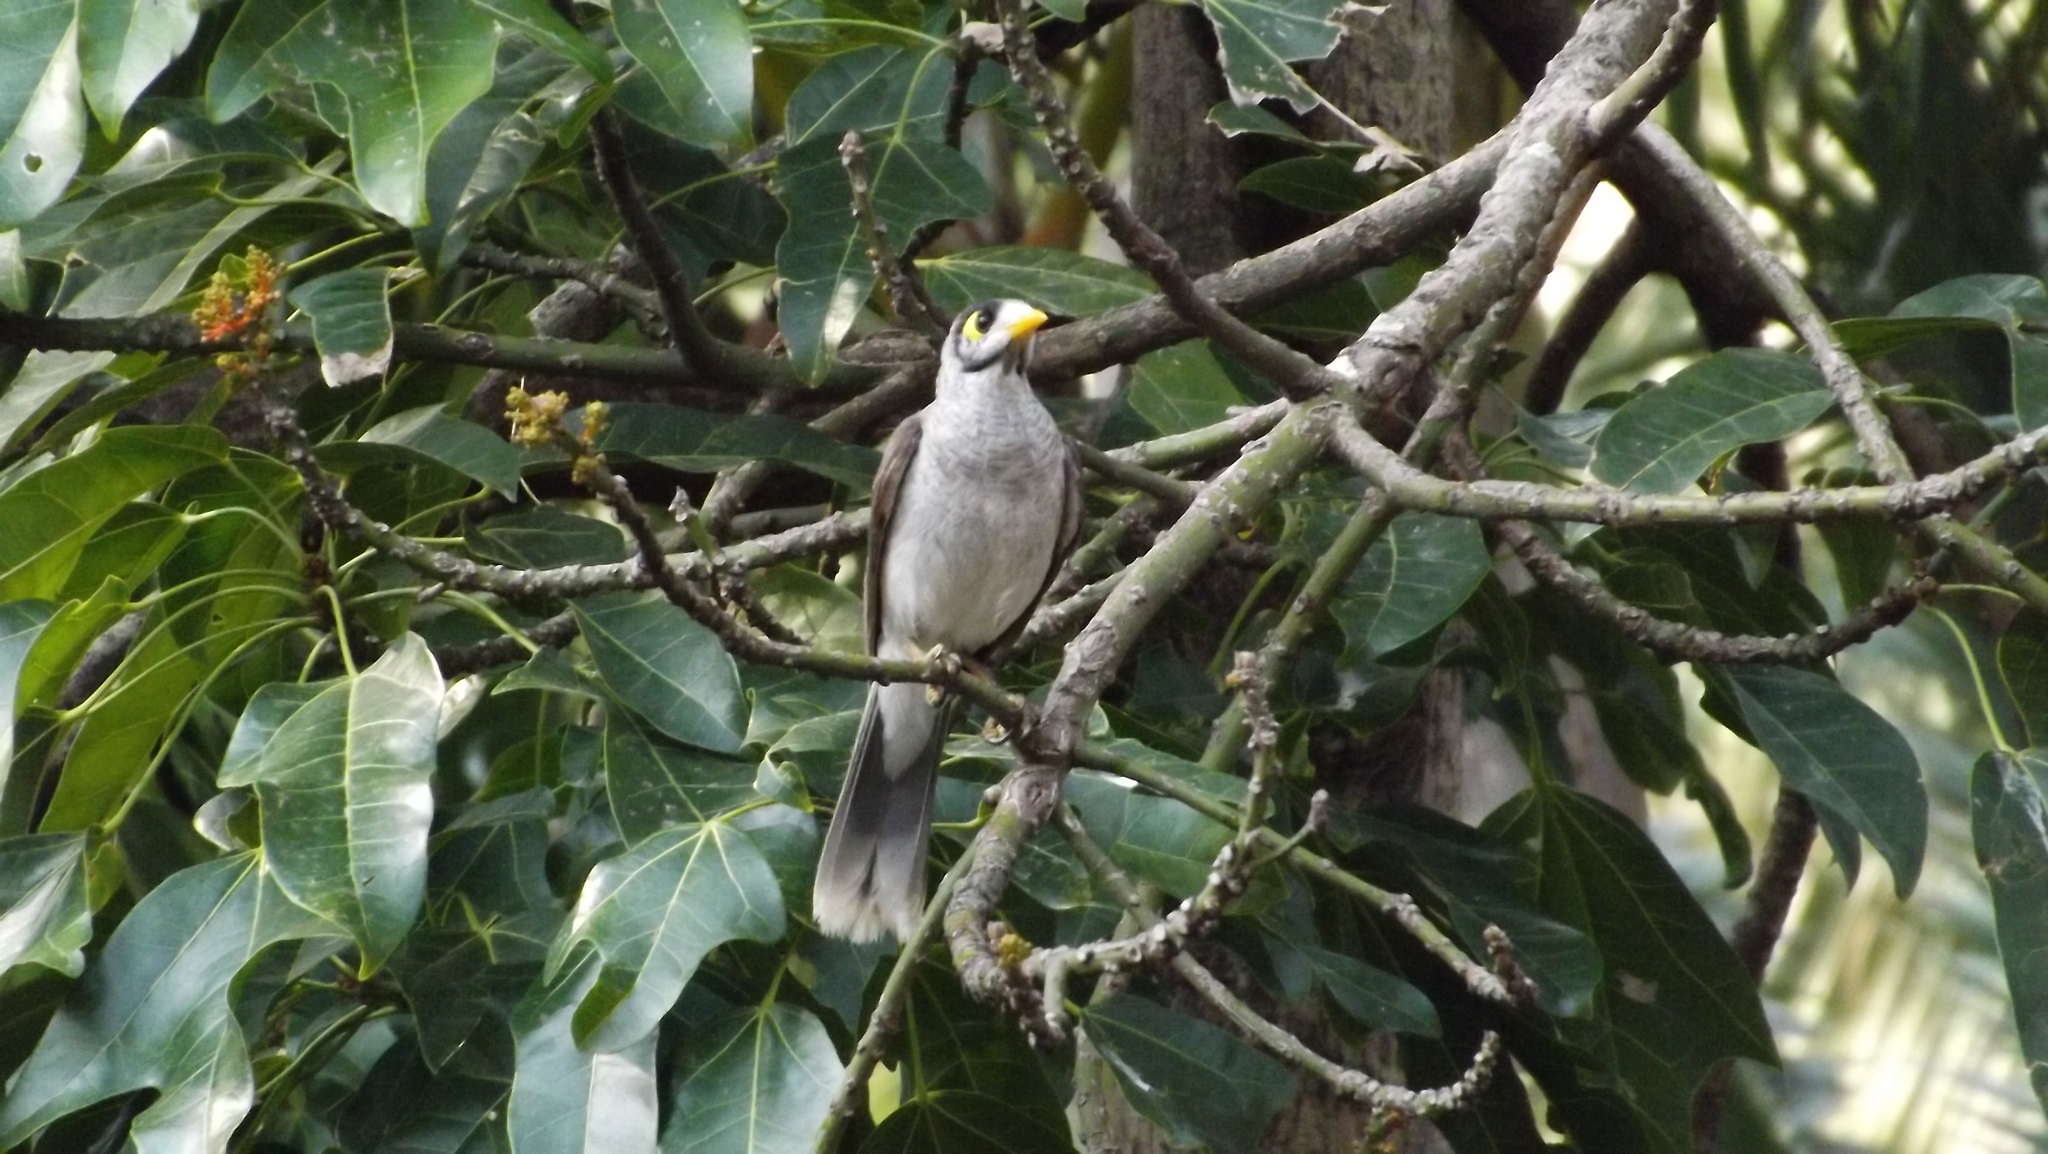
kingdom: Animalia
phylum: Chordata
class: Aves
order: Passeriformes
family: Meliphagidae
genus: Manorina
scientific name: Manorina melanocephala
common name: Noisy miner
